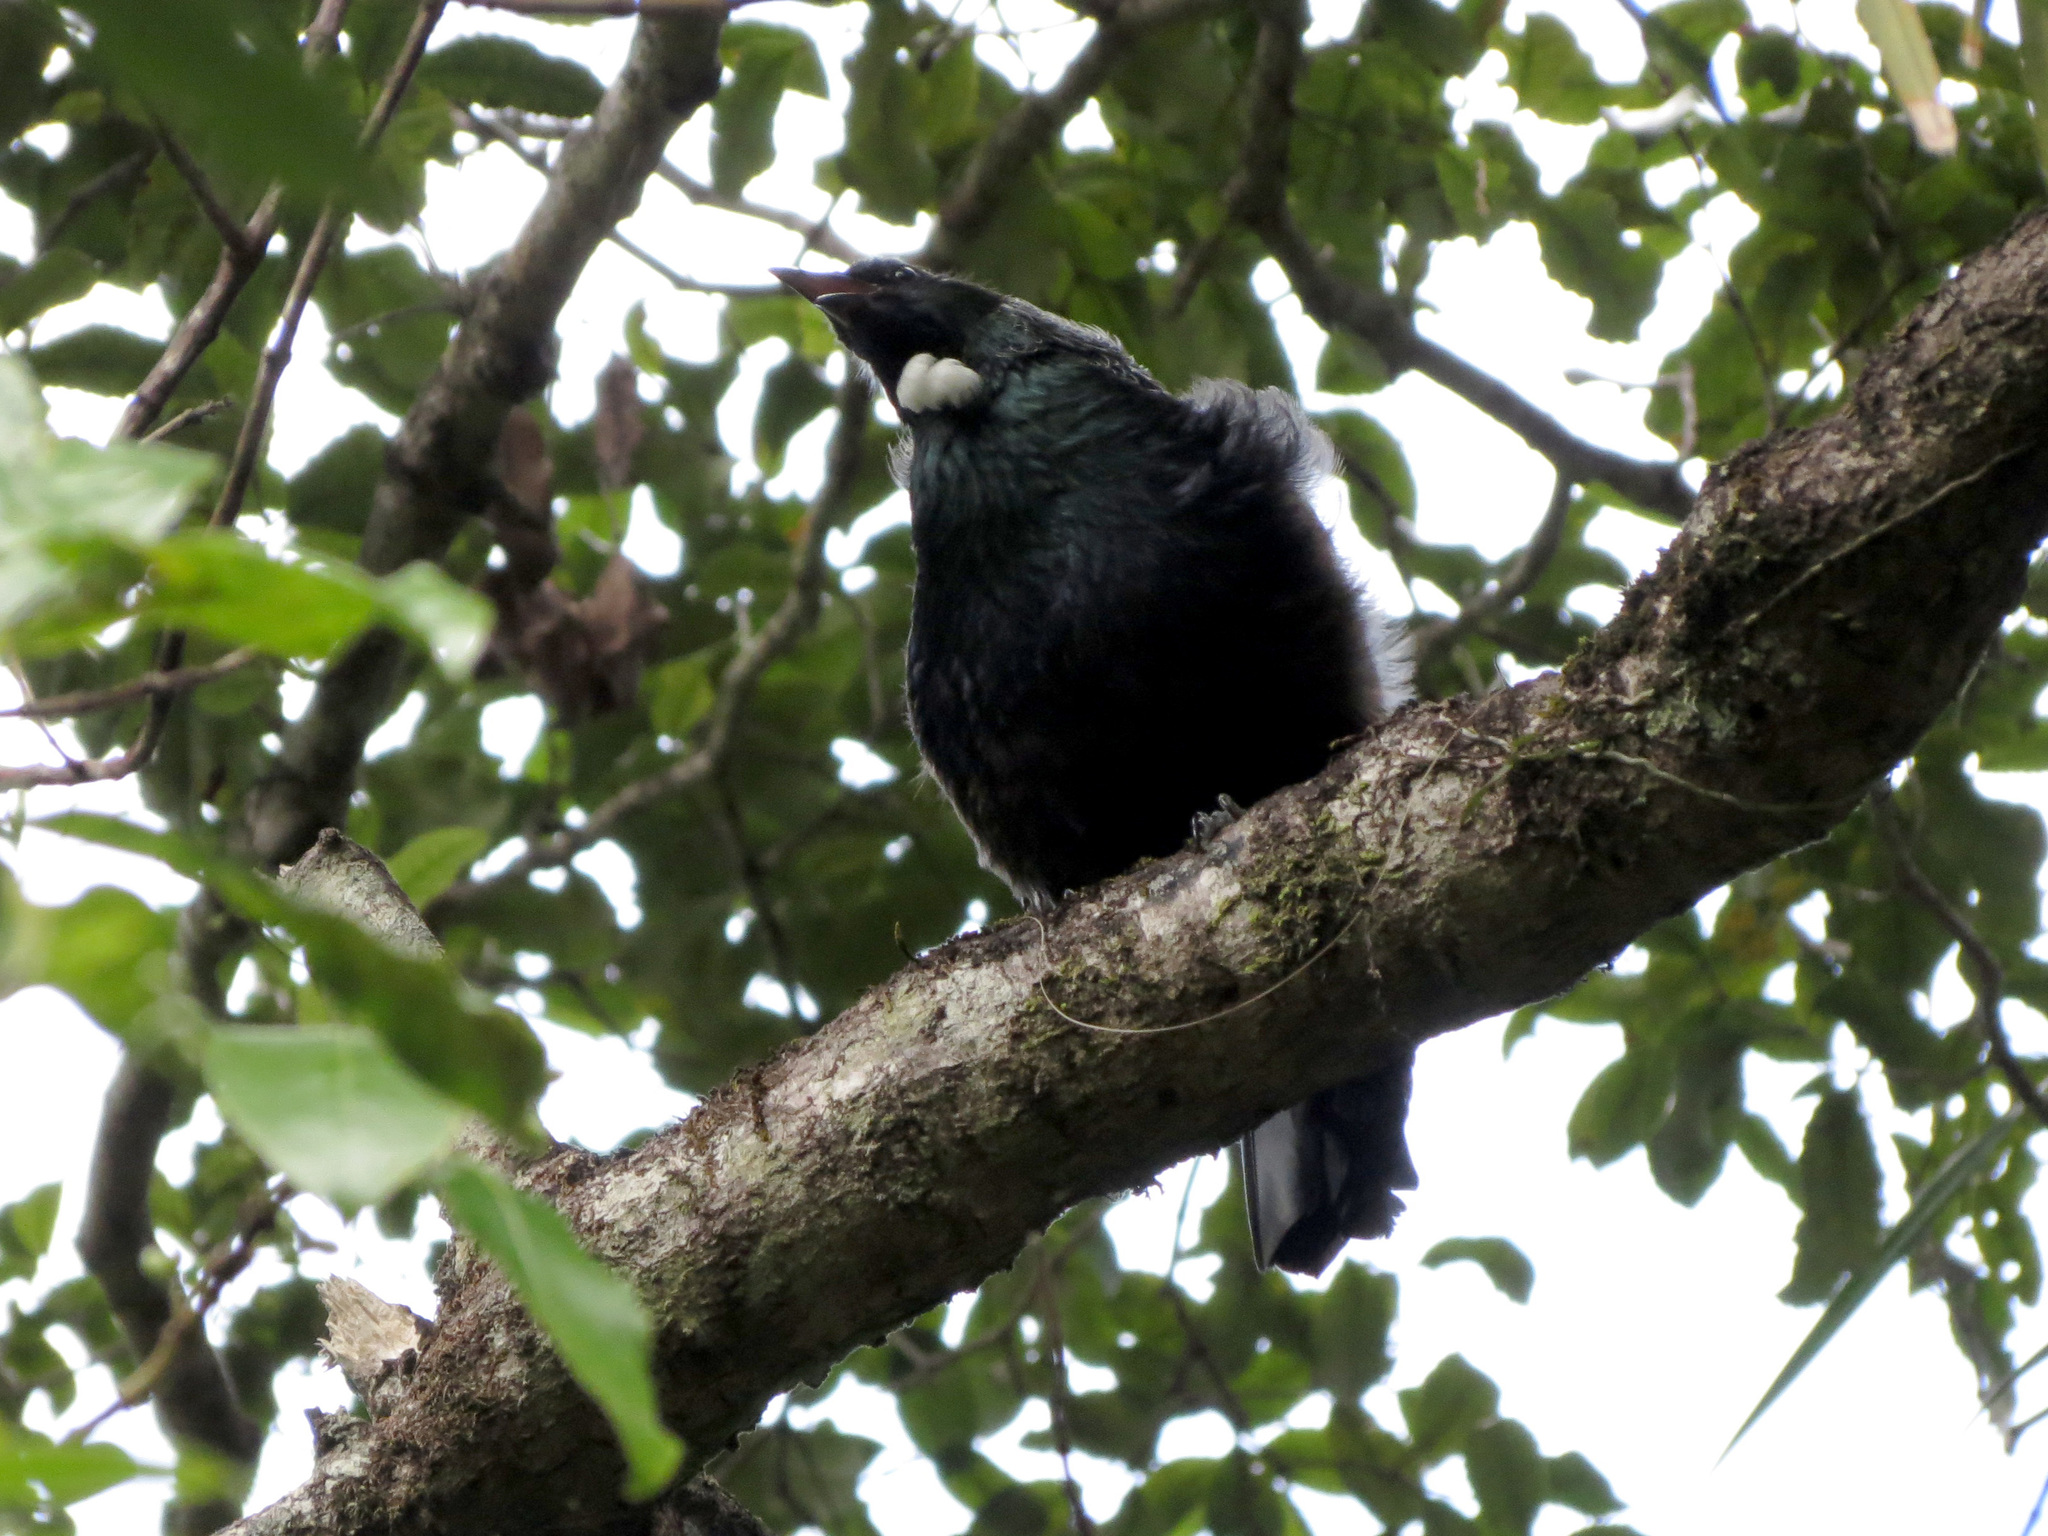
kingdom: Animalia
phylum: Chordata
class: Aves
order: Passeriformes
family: Meliphagidae
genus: Prosthemadera
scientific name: Prosthemadera novaeseelandiae
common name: Tui
